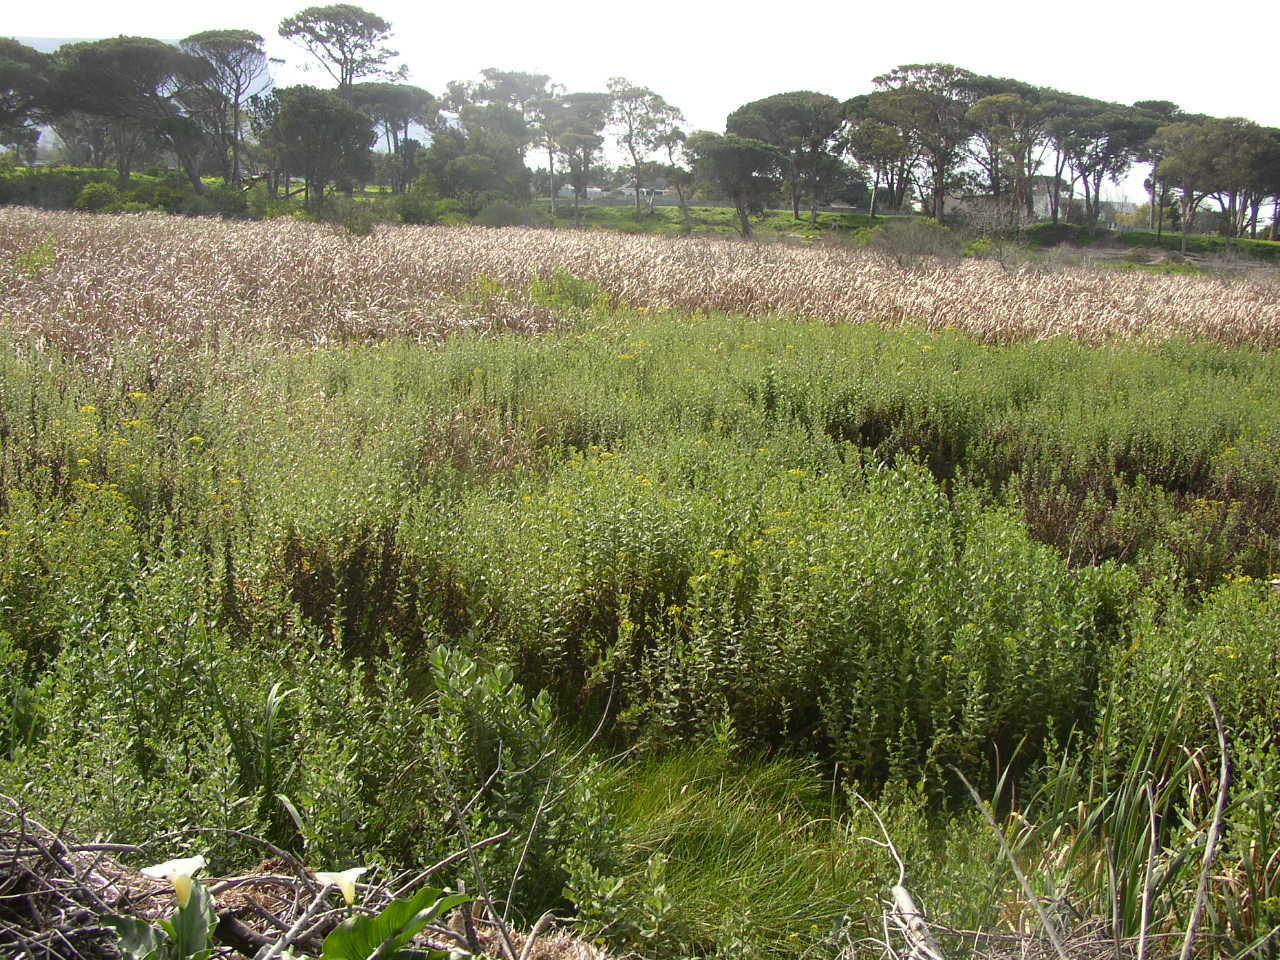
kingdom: Plantae
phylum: Tracheophyta
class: Magnoliopsida
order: Asterales
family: Asteraceae
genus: Senecio
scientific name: Senecio rigidus
